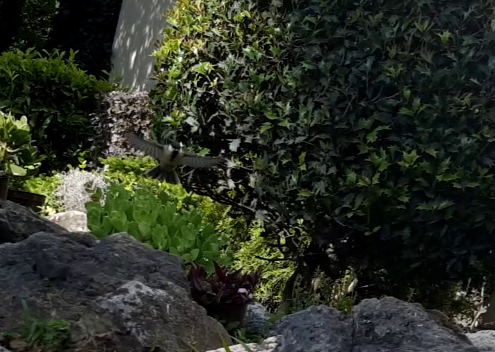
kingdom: Animalia
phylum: Chordata
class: Aves
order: Passeriformes
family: Paridae
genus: Parus
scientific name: Parus major
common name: Great tit
